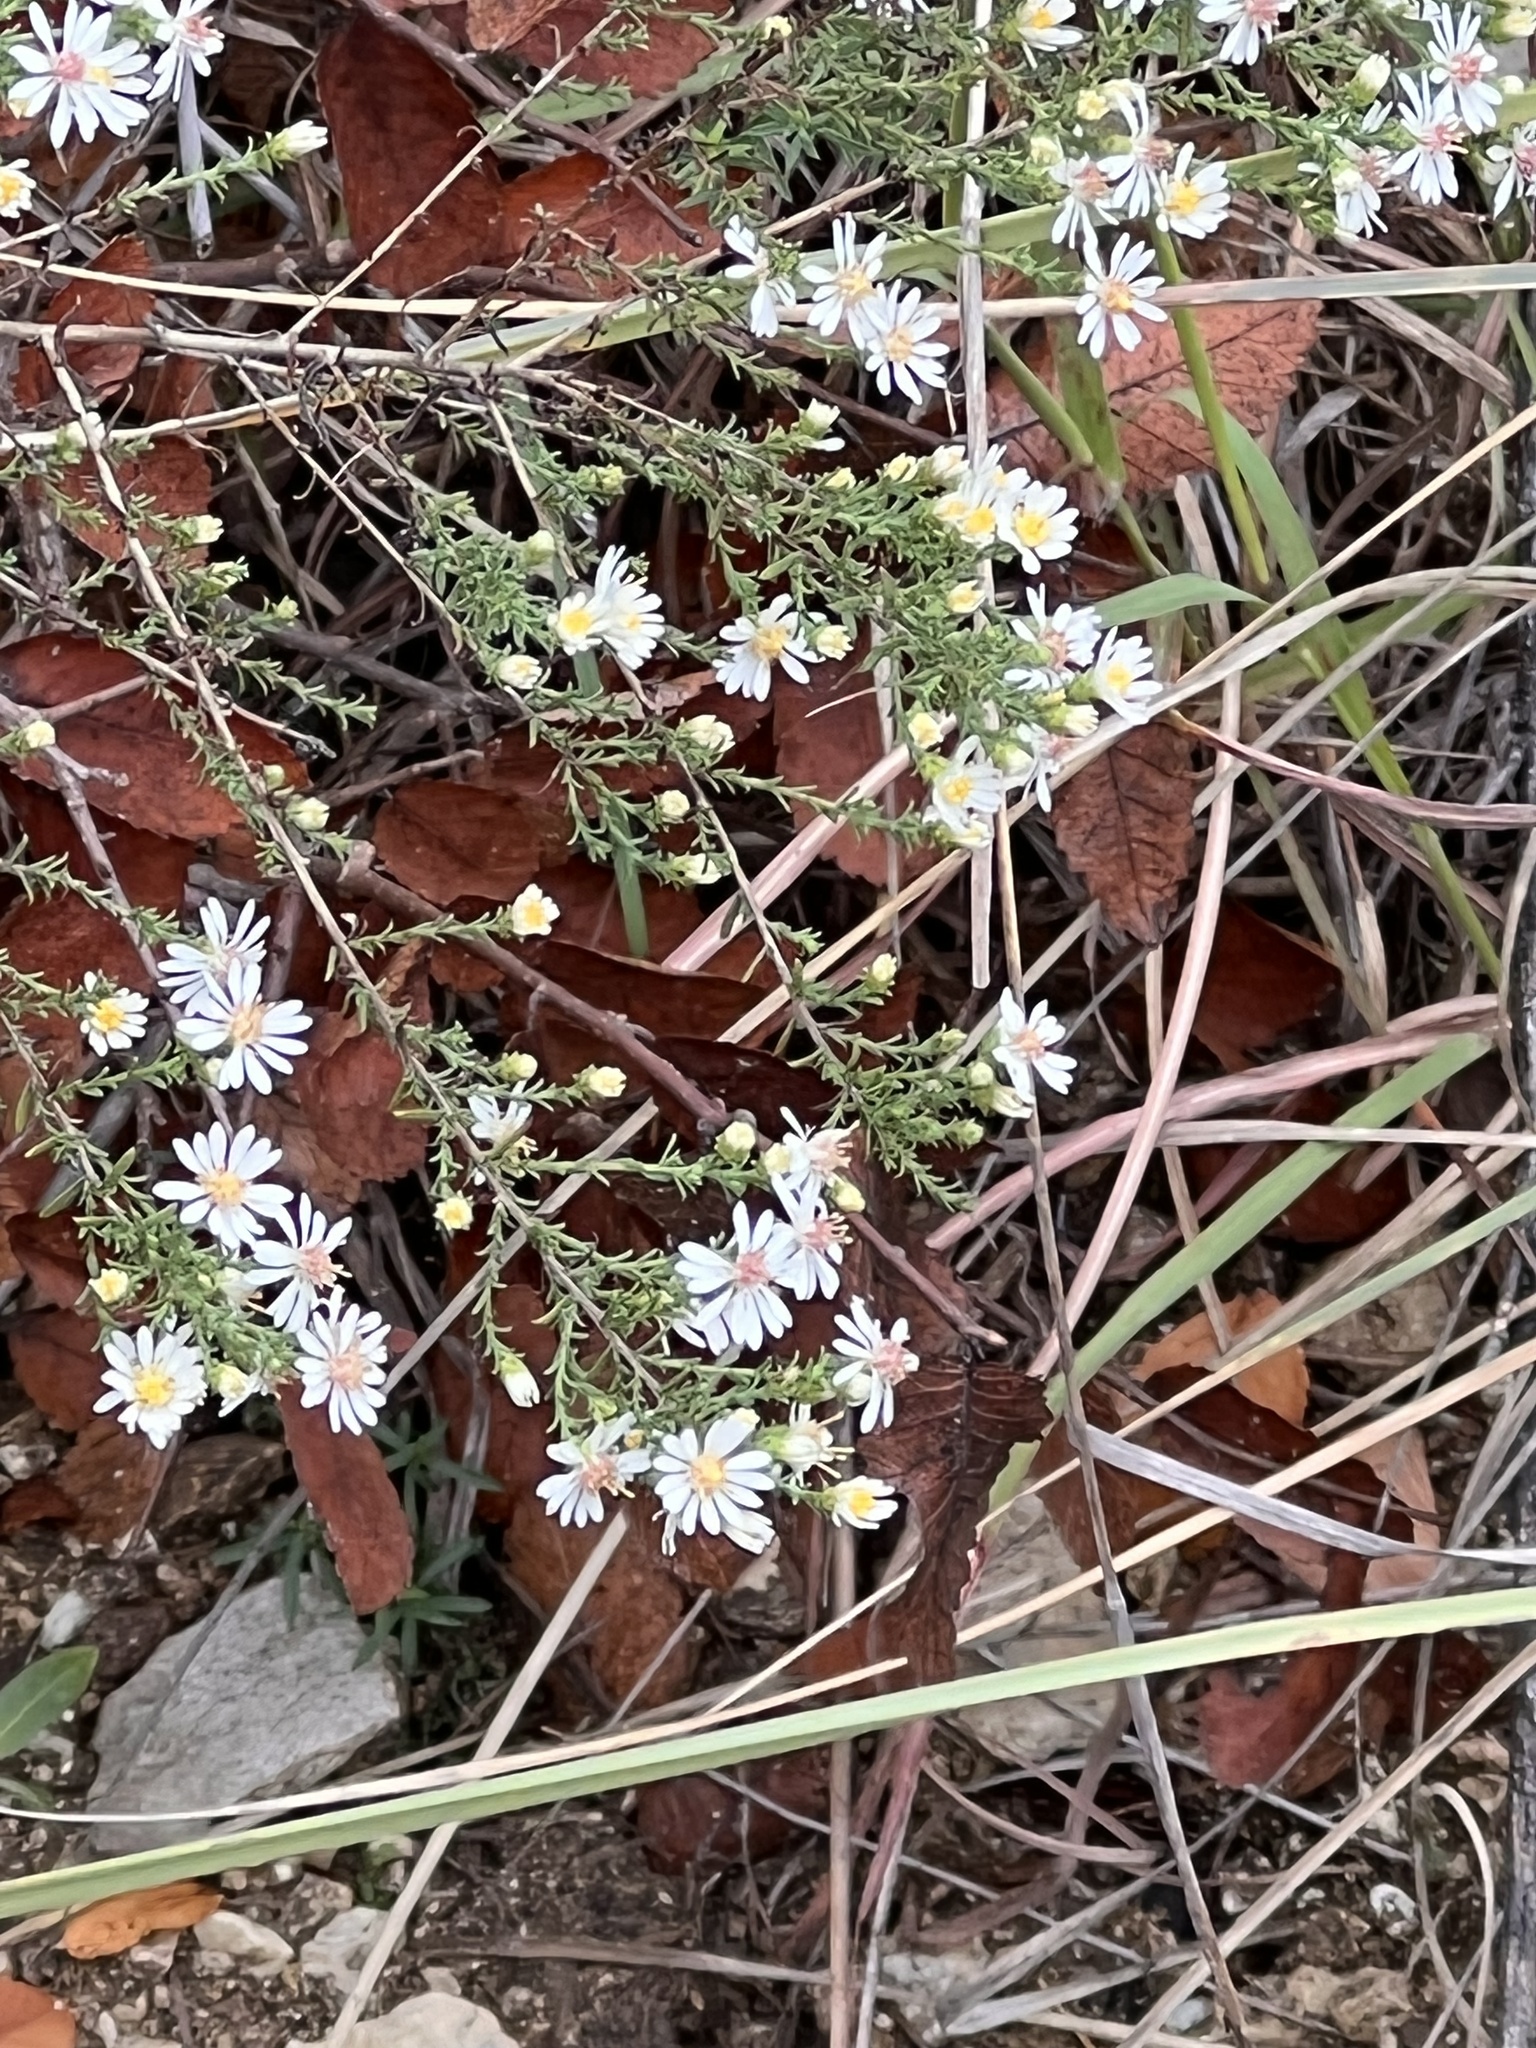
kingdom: Plantae
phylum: Tracheophyta
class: Magnoliopsida
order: Asterales
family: Asteraceae
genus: Symphyotrichum
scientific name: Symphyotrichum ericoides
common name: Heath aster
